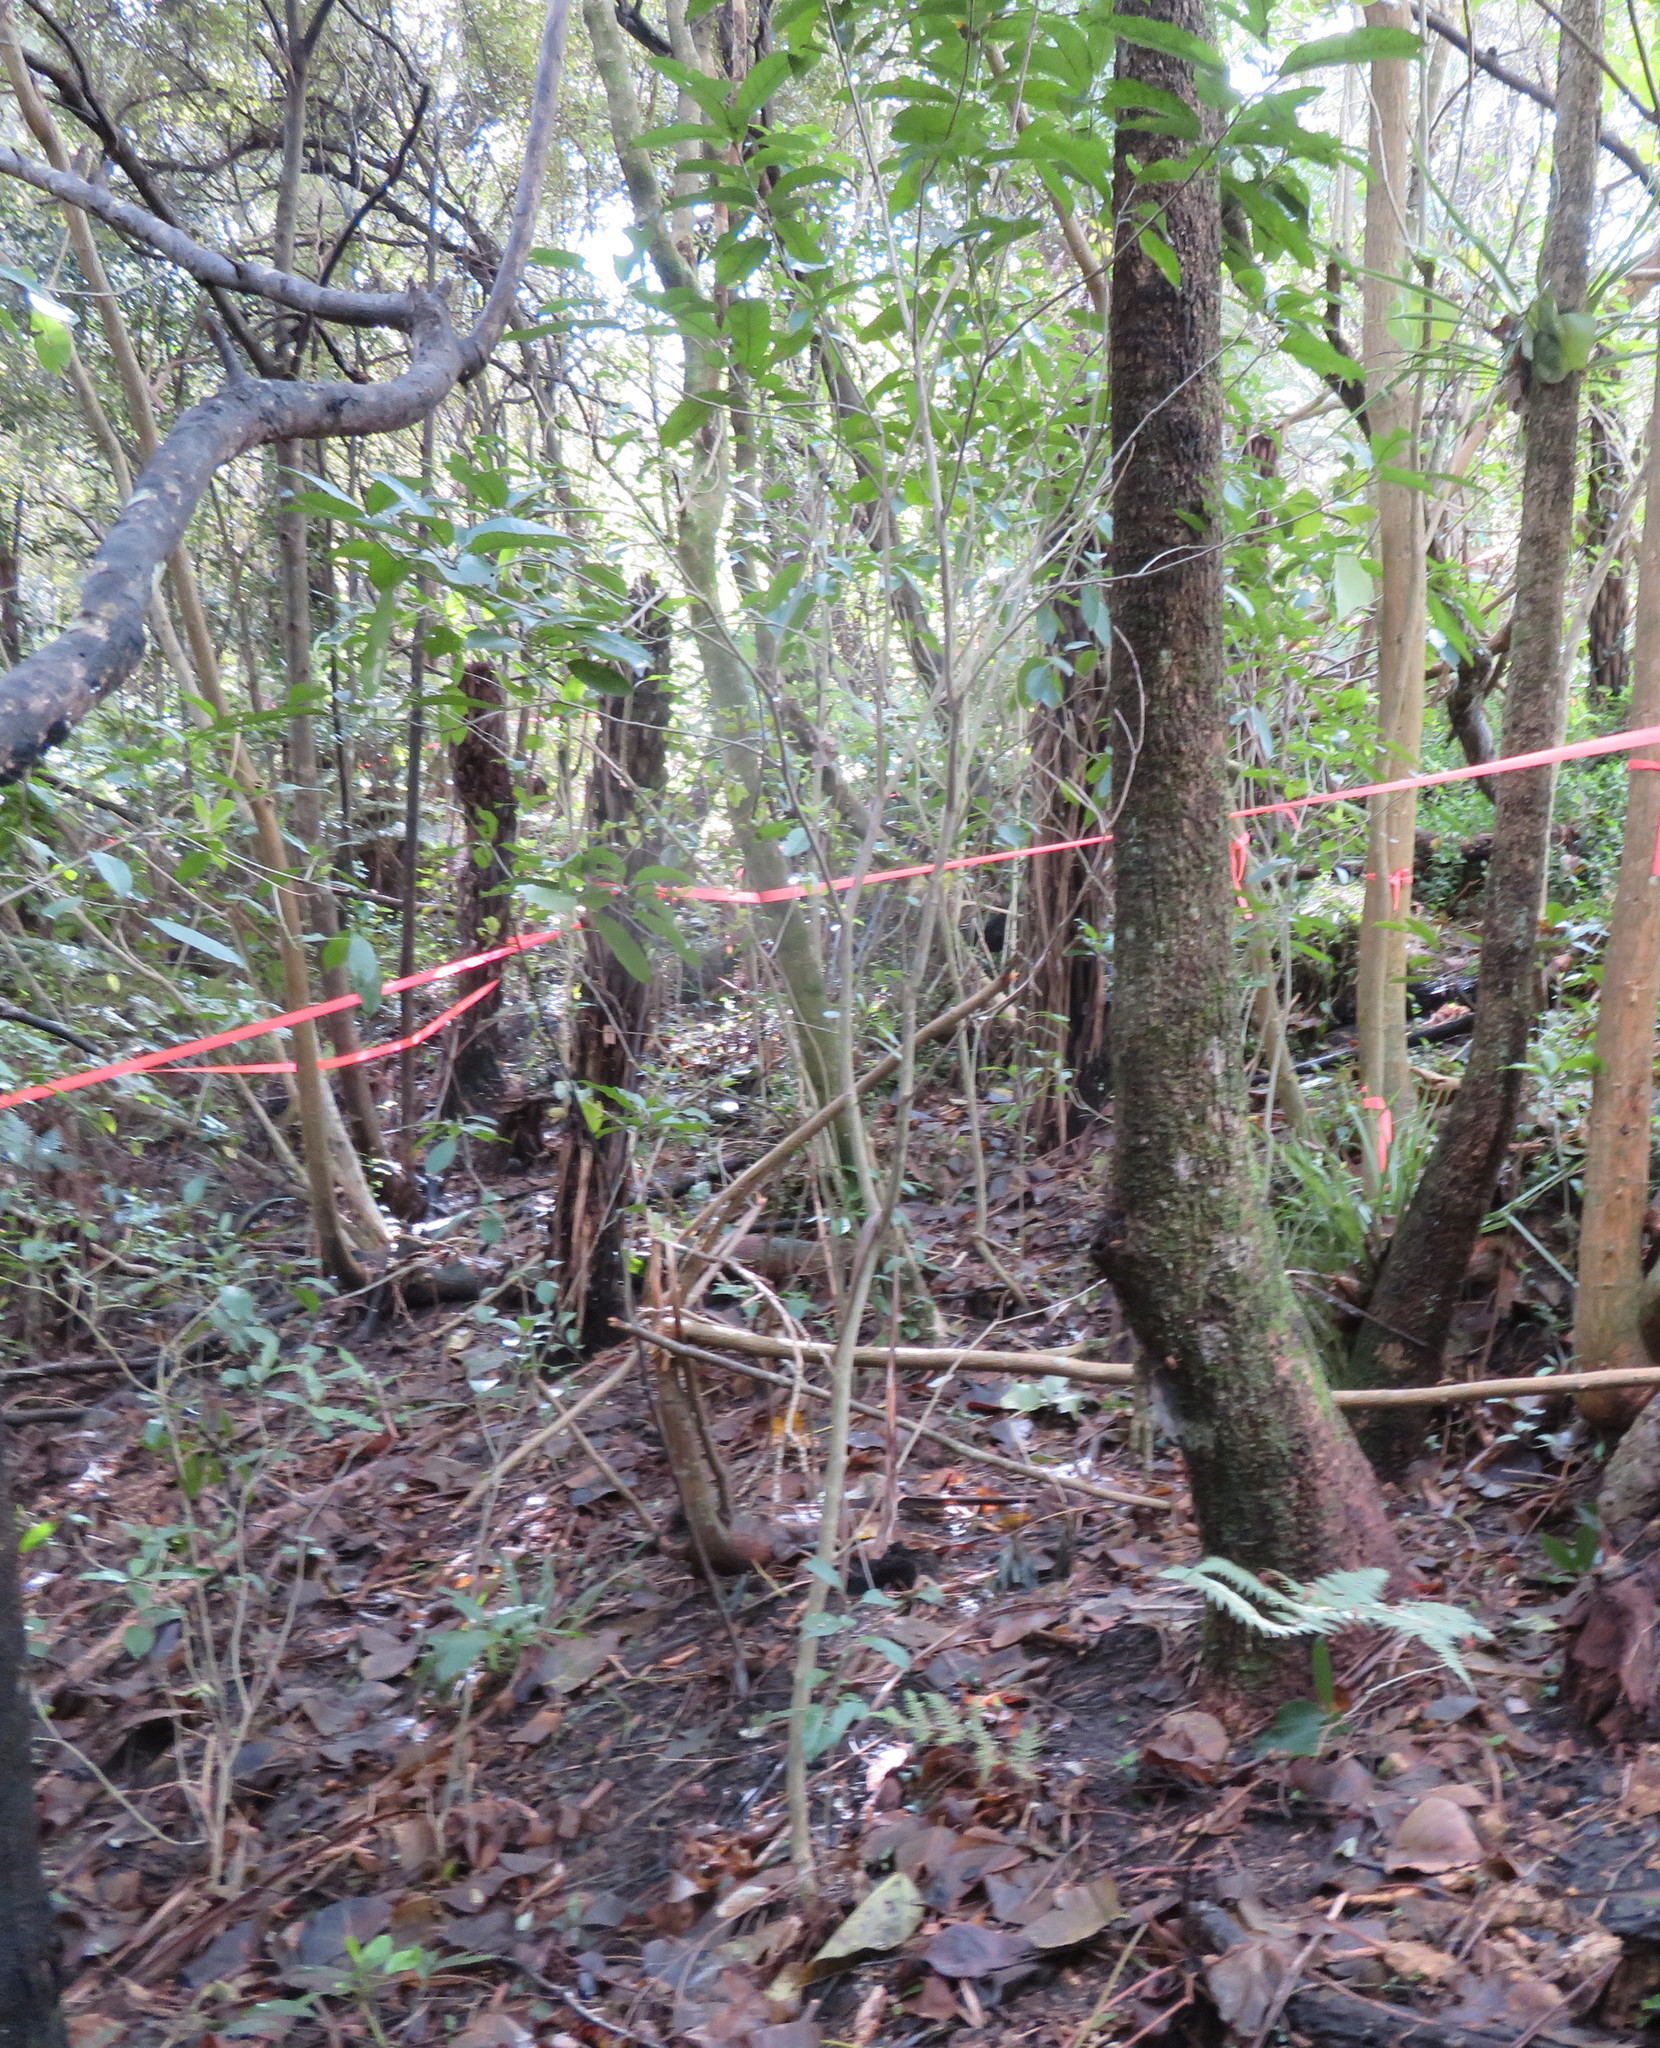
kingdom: Plantae
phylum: Tracheophyta
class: Magnoliopsida
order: Malpighiales
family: Violaceae
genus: Melicytus
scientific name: Melicytus ramiflorus
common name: Mahoe
